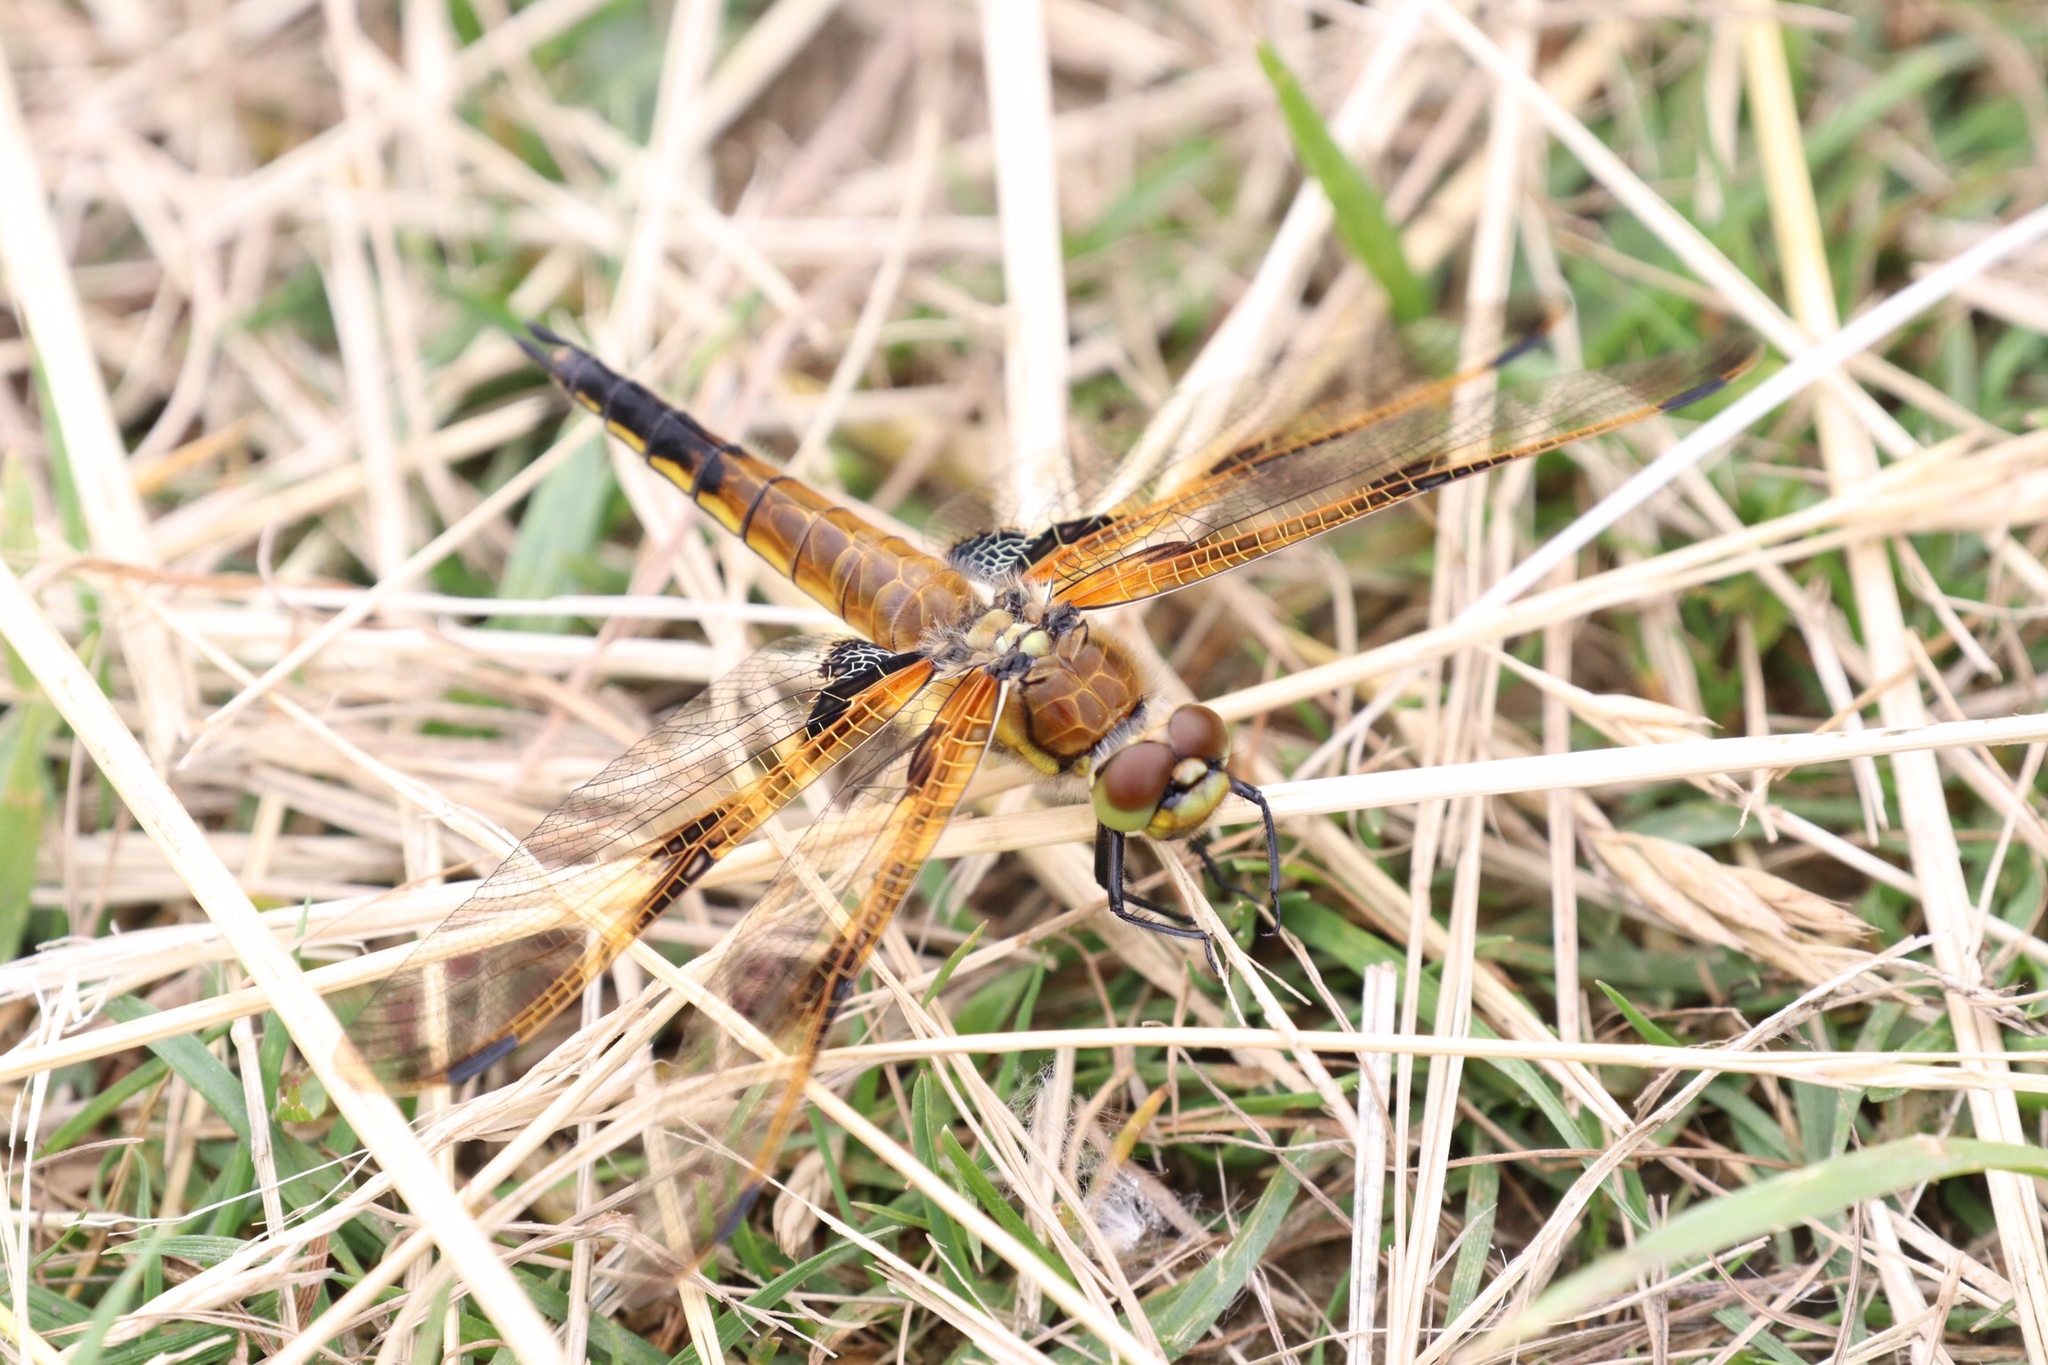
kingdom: Animalia
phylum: Arthropoda
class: Insecta
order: Odonata
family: Libellulidae
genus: Libellula
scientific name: Libellula quadrimaculata
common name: Four-spotted chaser
